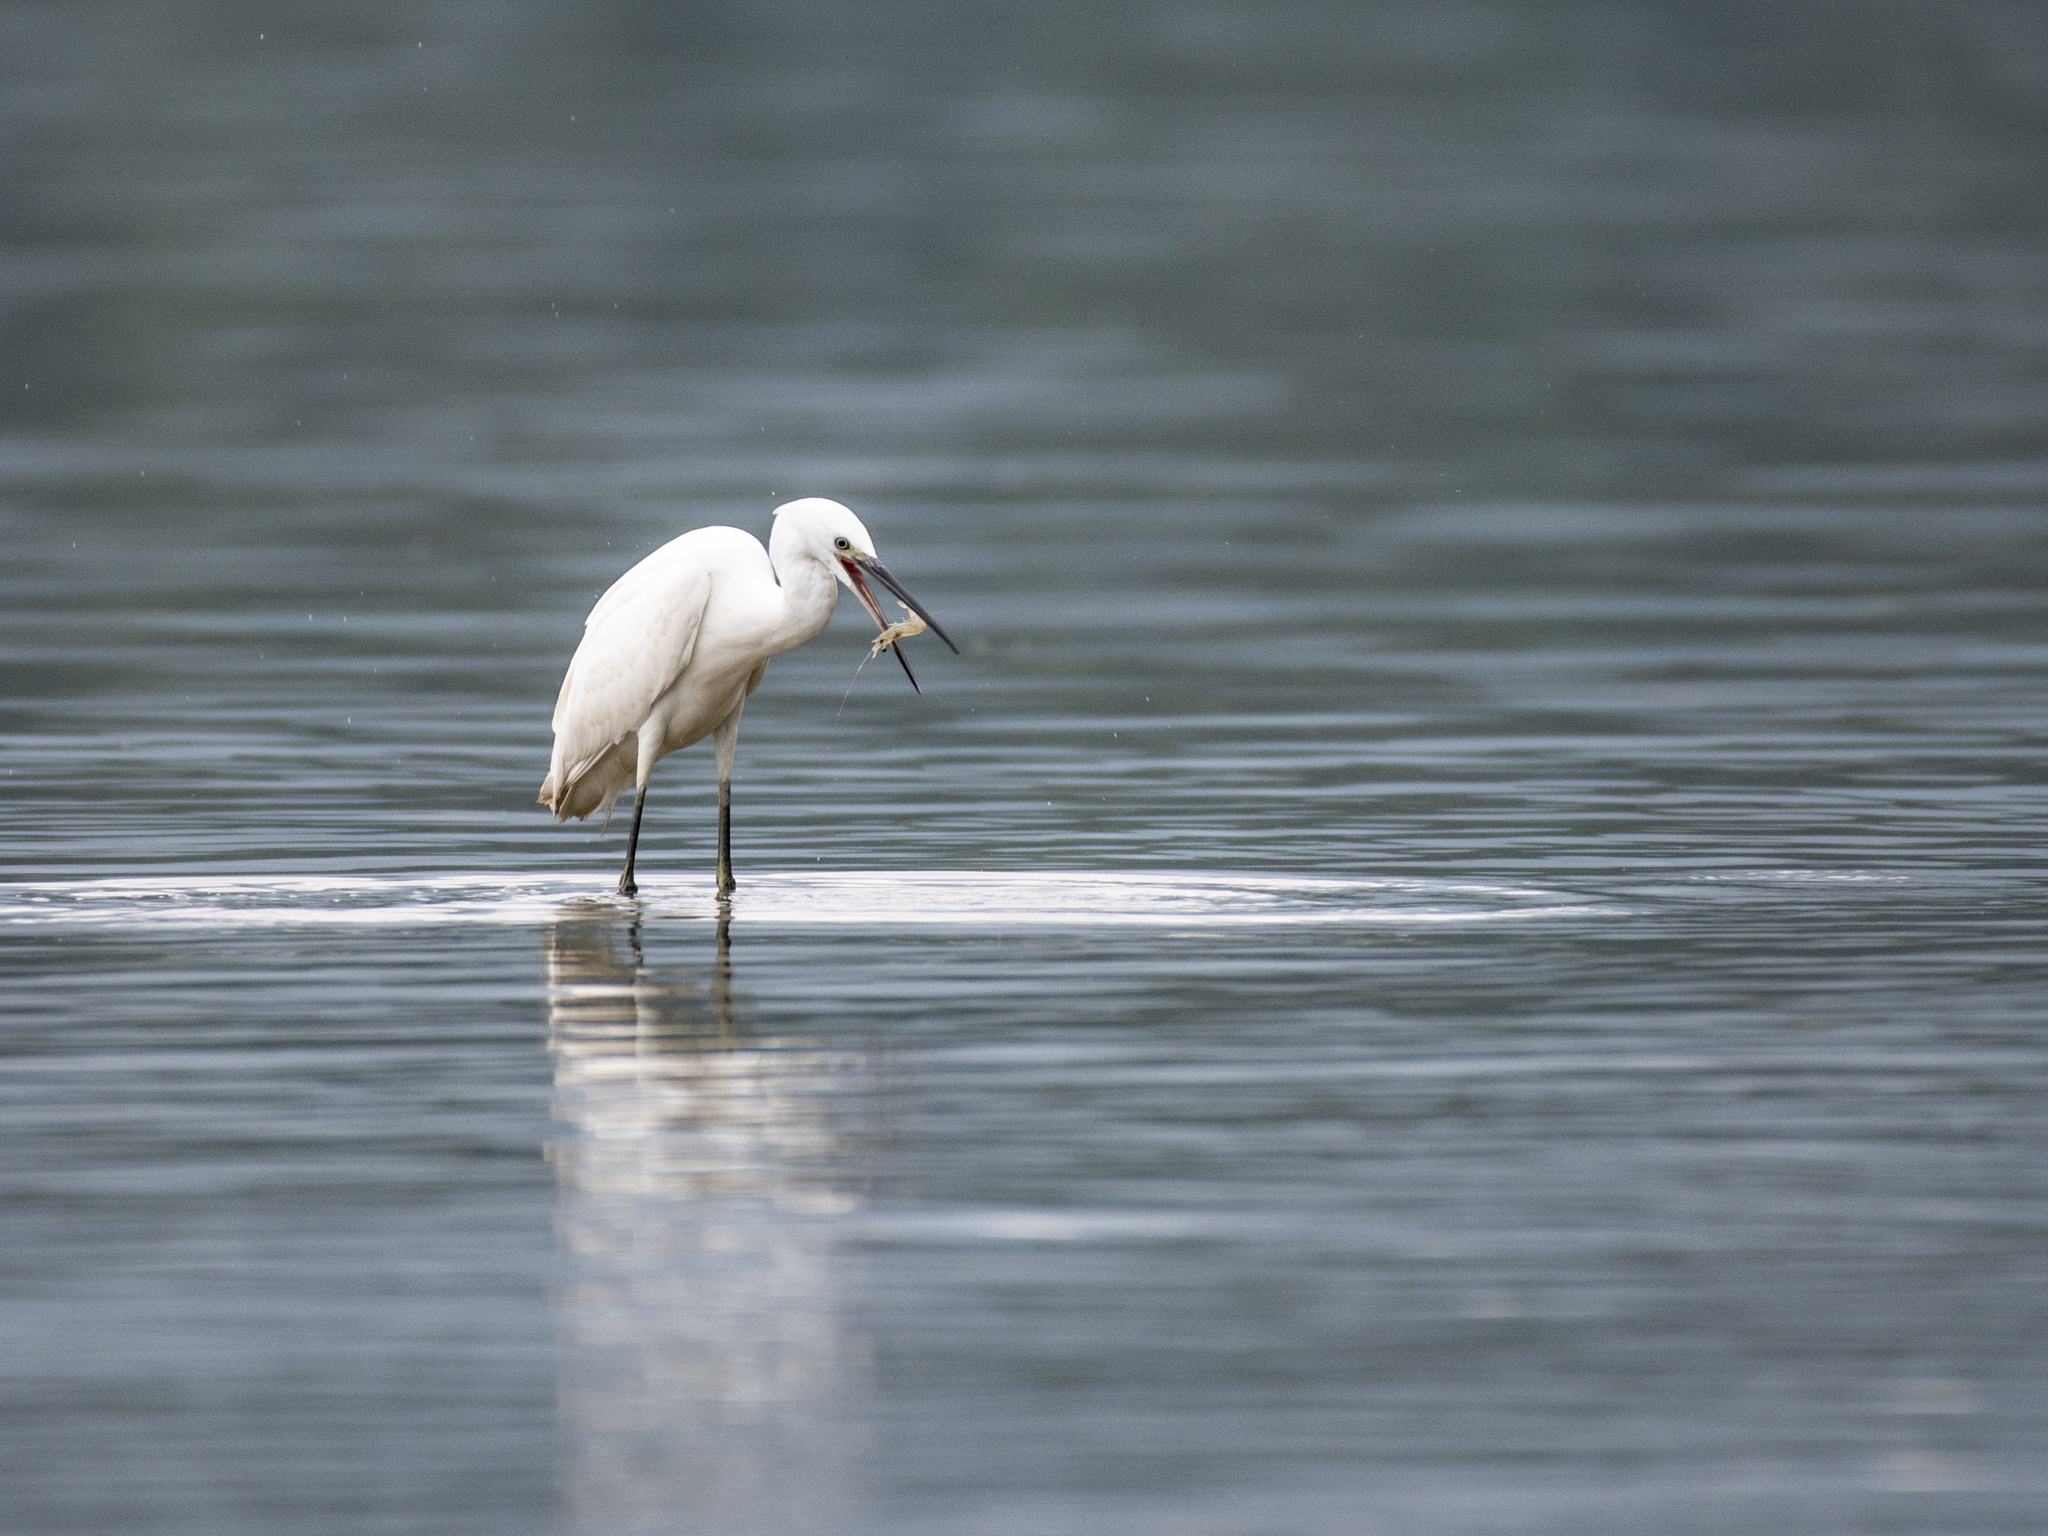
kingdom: Animalia
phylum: Chordata
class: Aves
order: Pelecaniformes
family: Ardeidae
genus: Egretta
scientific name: Egretta garzetta
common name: Little egret
